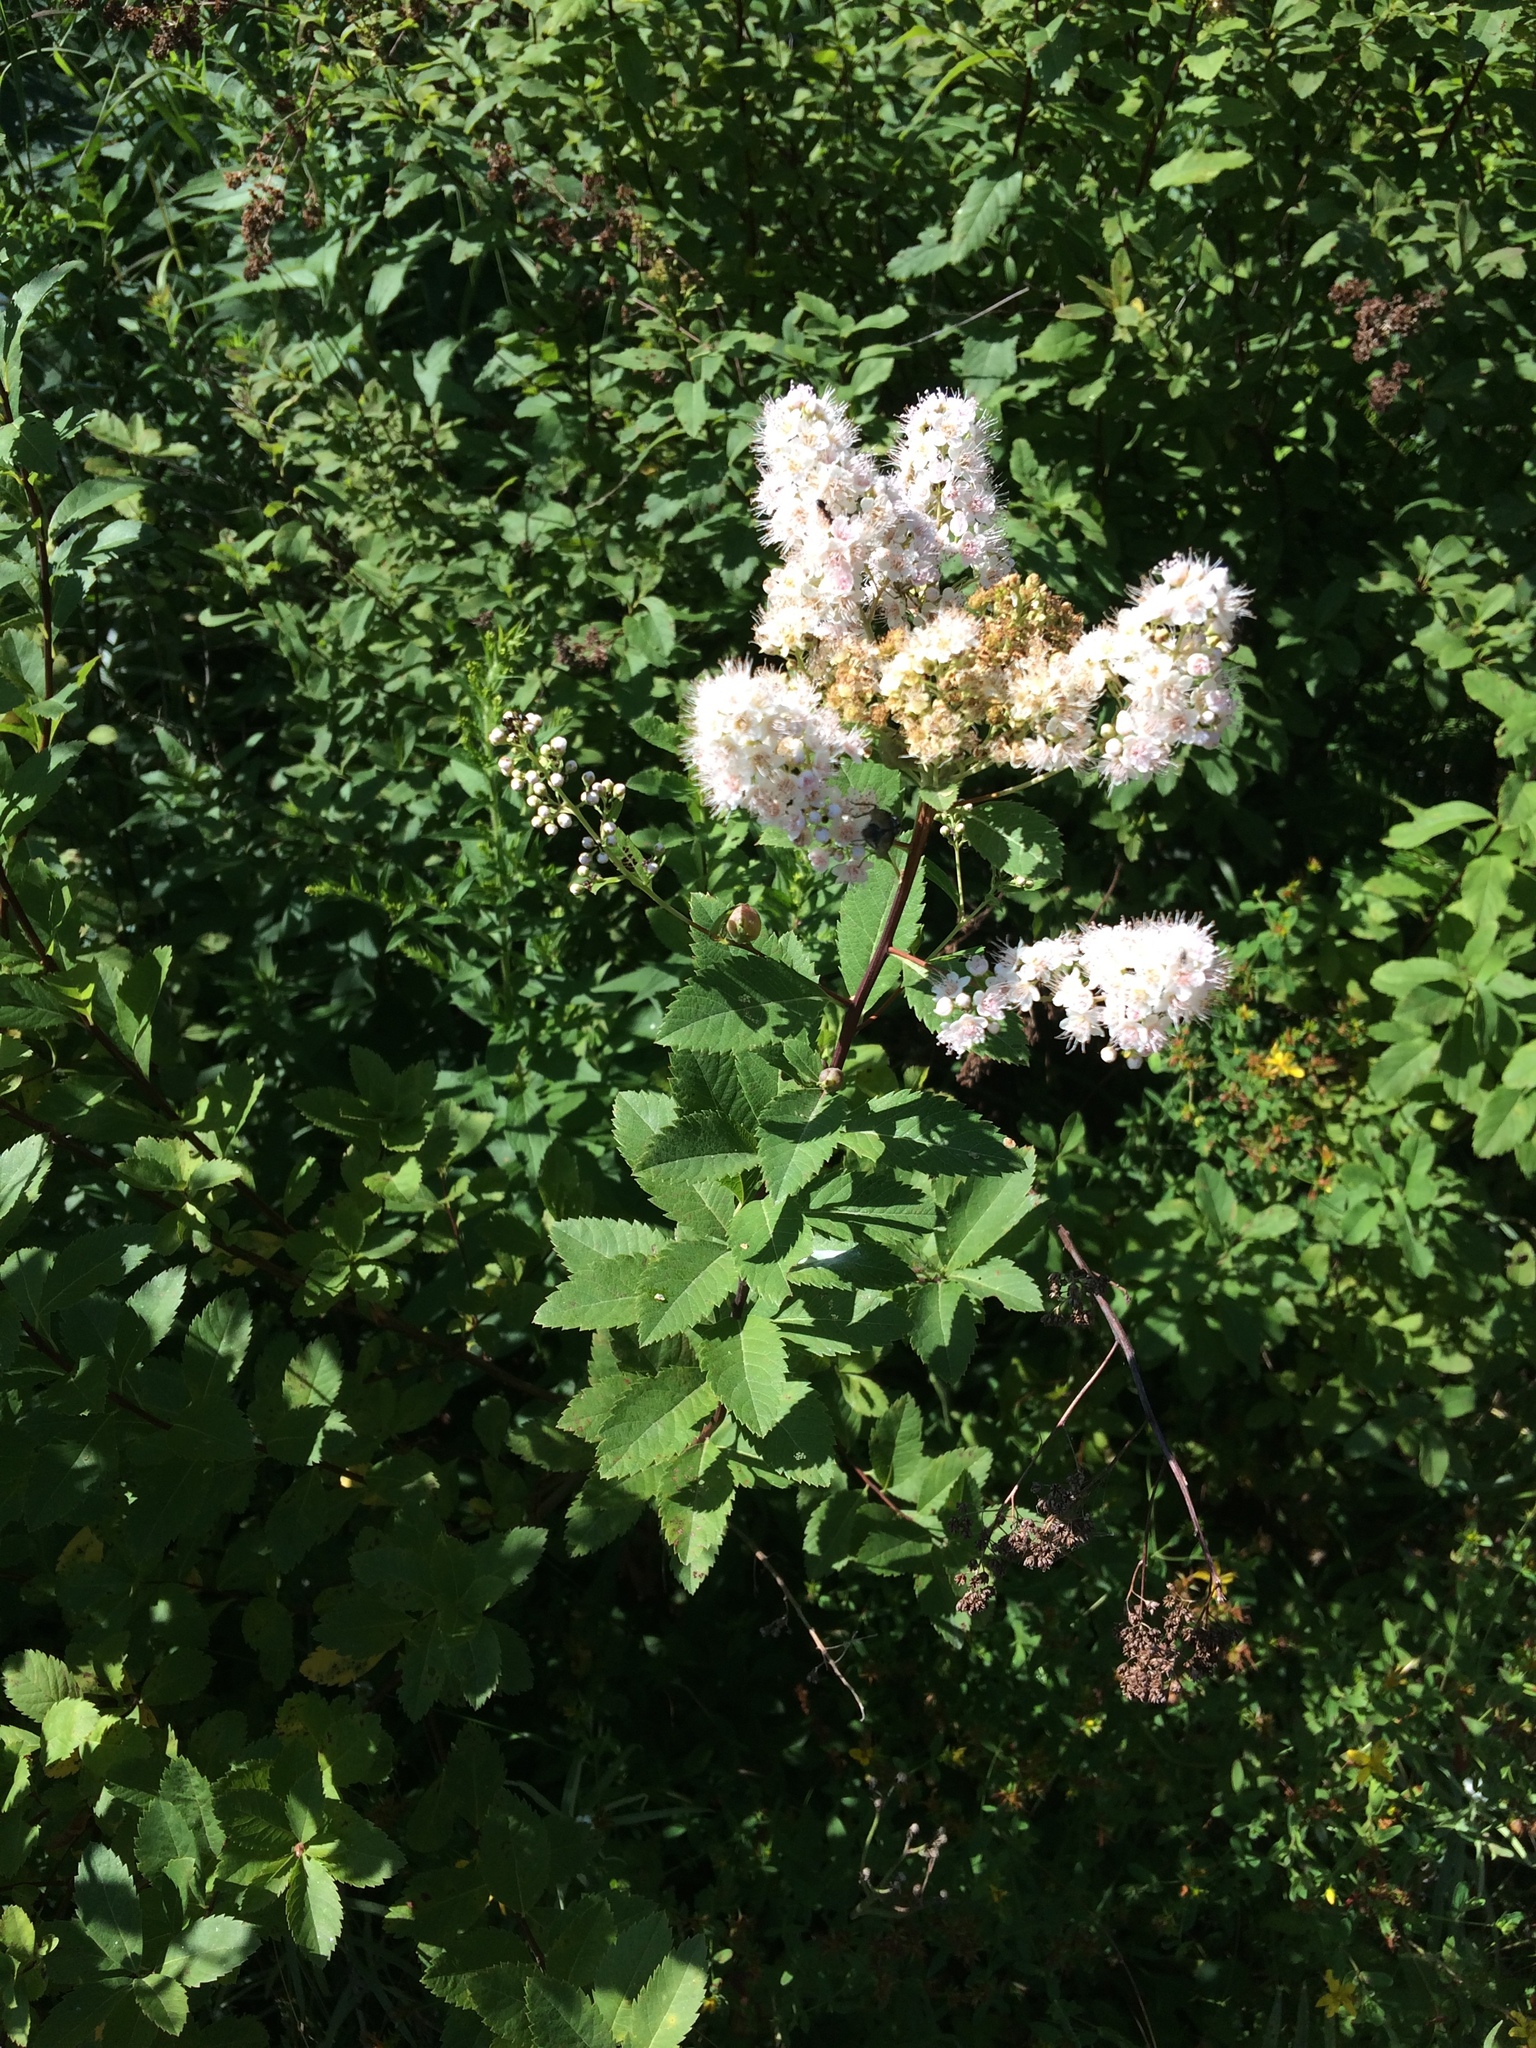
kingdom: Plantae
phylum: Tracheophyta
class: Magnoliopsida
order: Rosales
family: Rosaceae
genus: Spiraea
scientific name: Spiraea alba
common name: Pale bridewort
